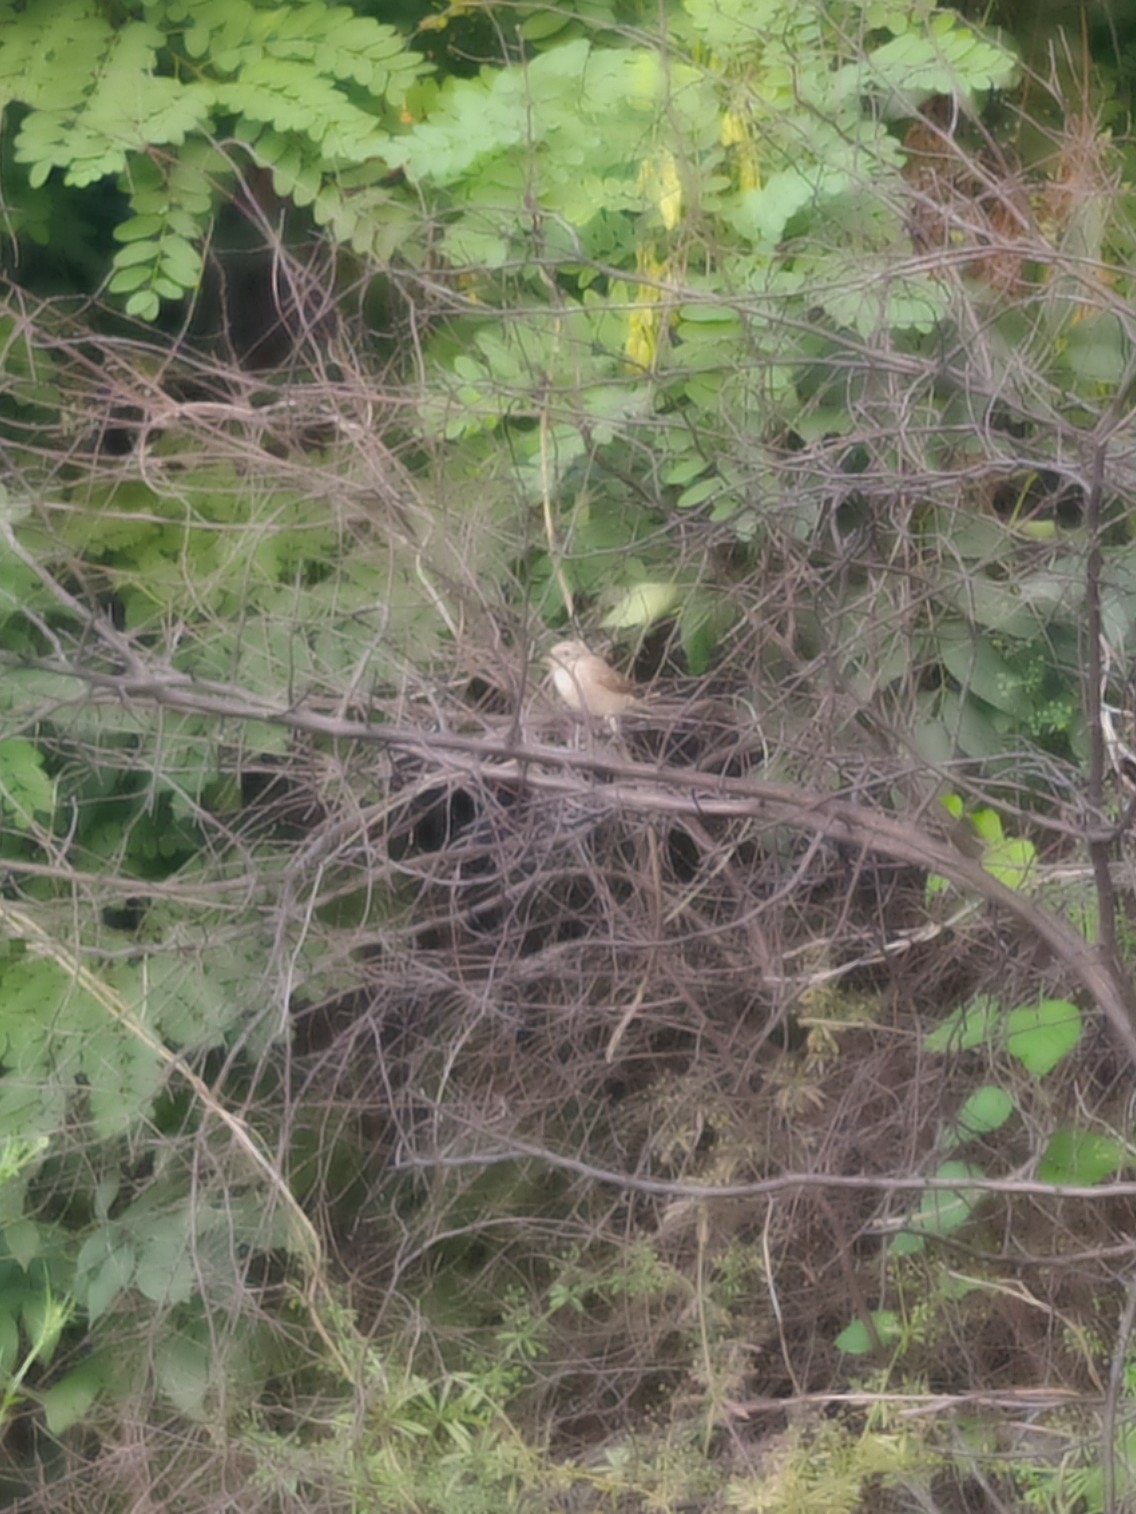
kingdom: Animalia
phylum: Chordata
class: Aves
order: Passeriformes
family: Laniidae
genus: Lanius
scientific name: Lanius collurio
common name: Red-backed shrike
